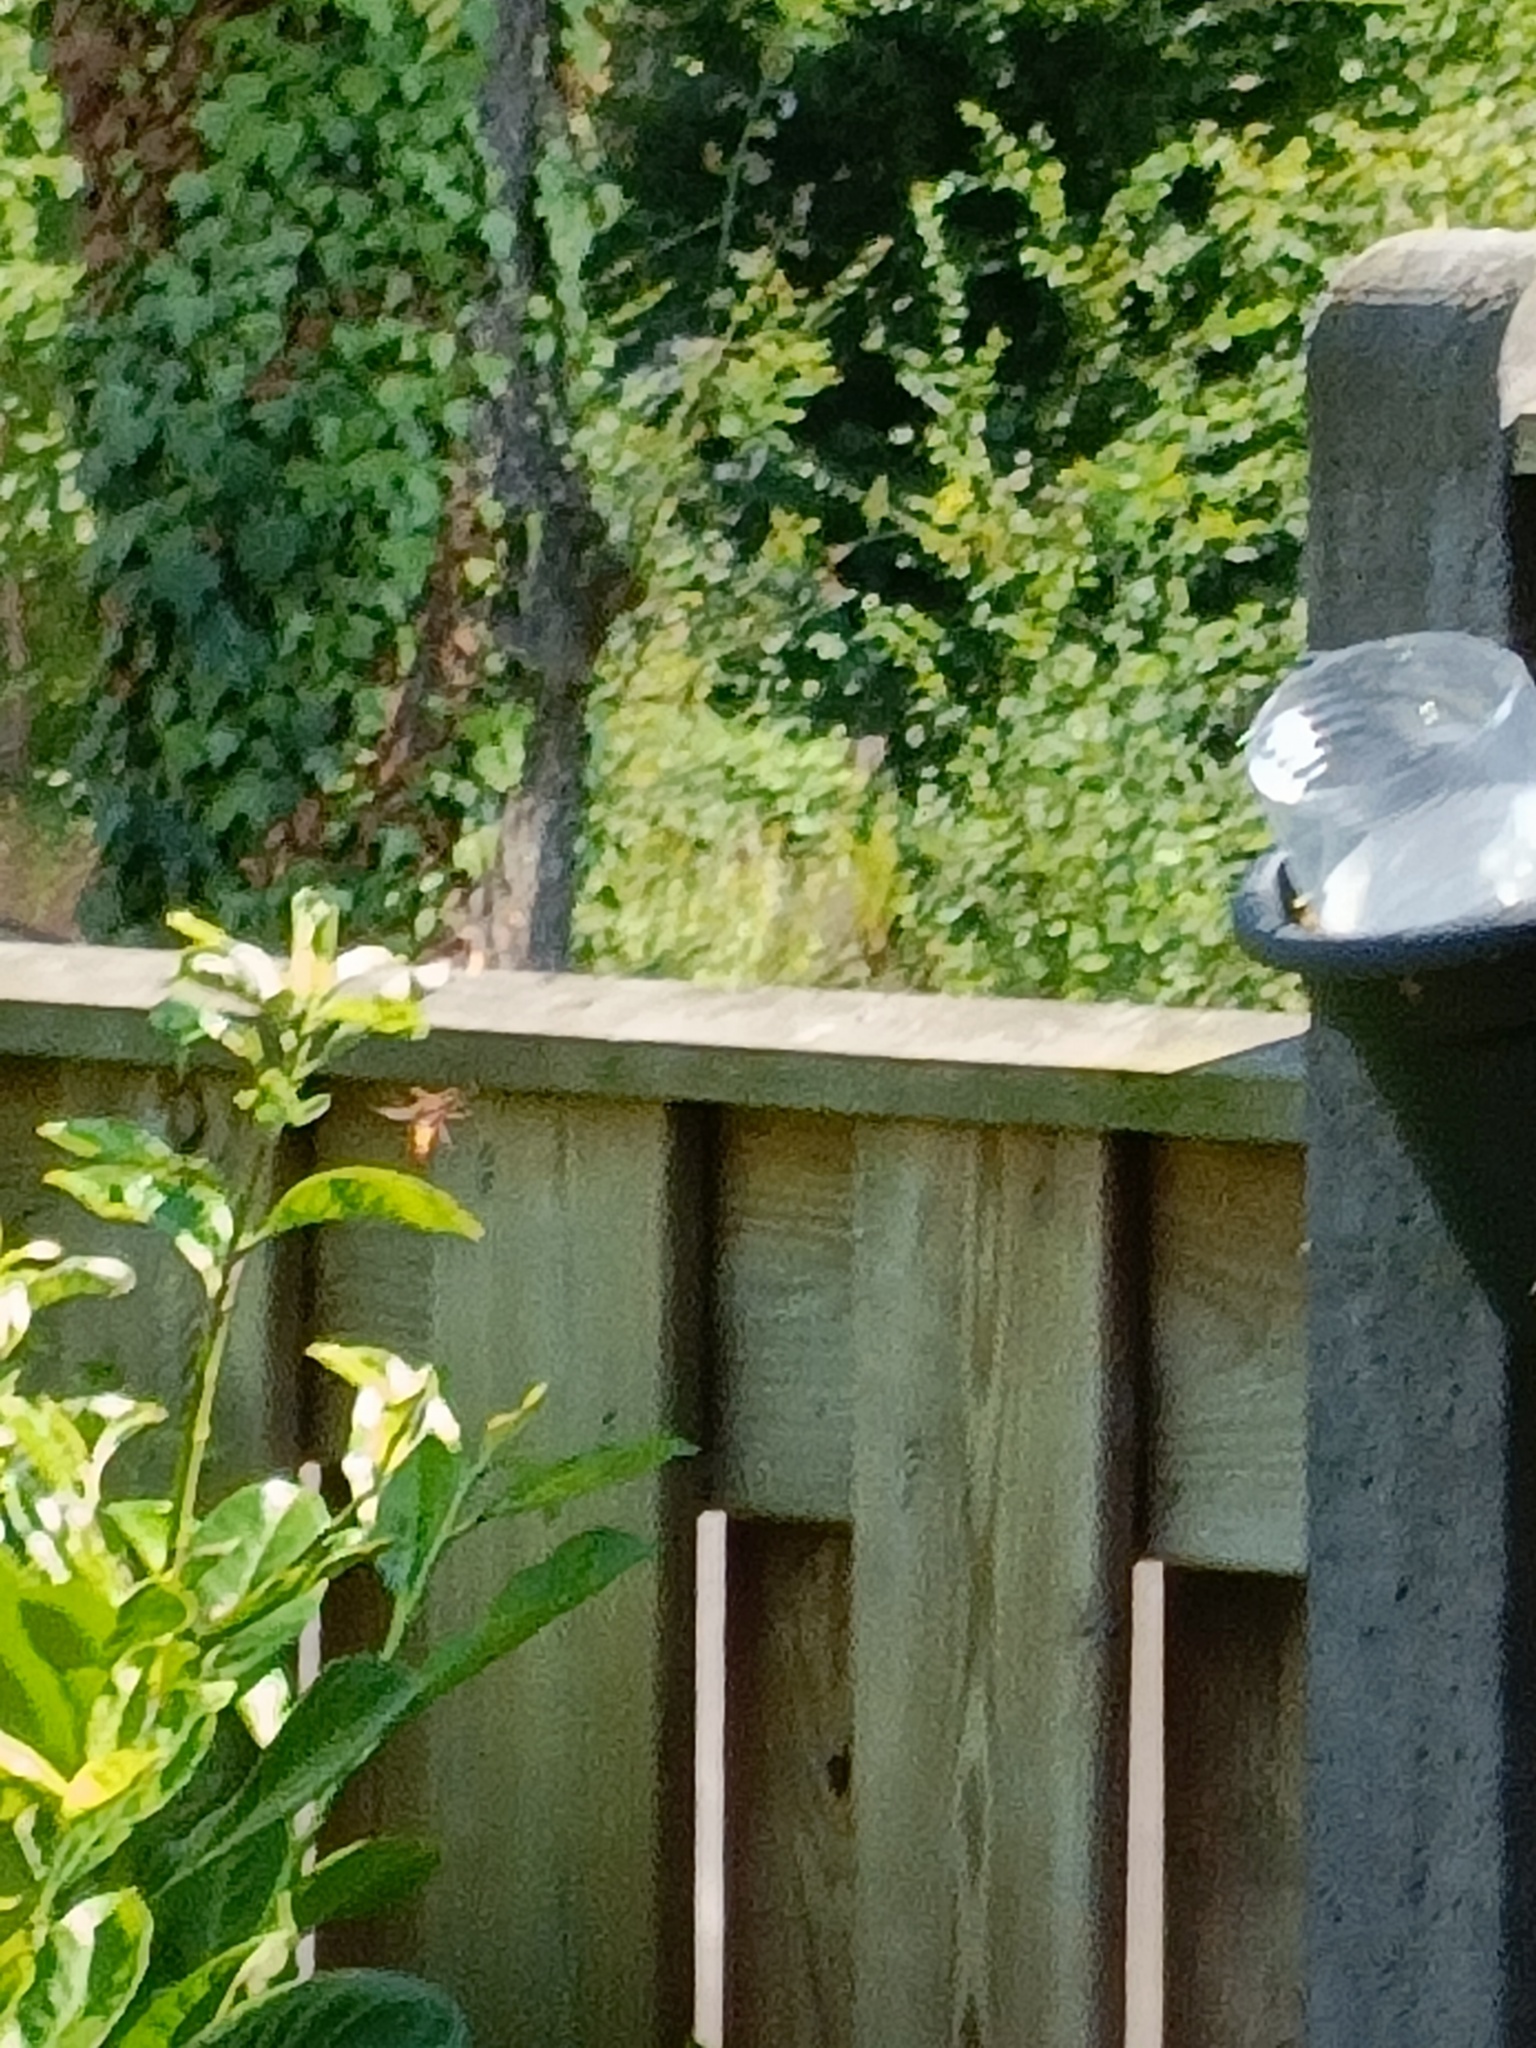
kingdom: Animalia
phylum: Arthropoda
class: Insecta
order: Hymenoptera
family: Vespidae
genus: Vespa
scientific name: Vespa crabro
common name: Hornet
